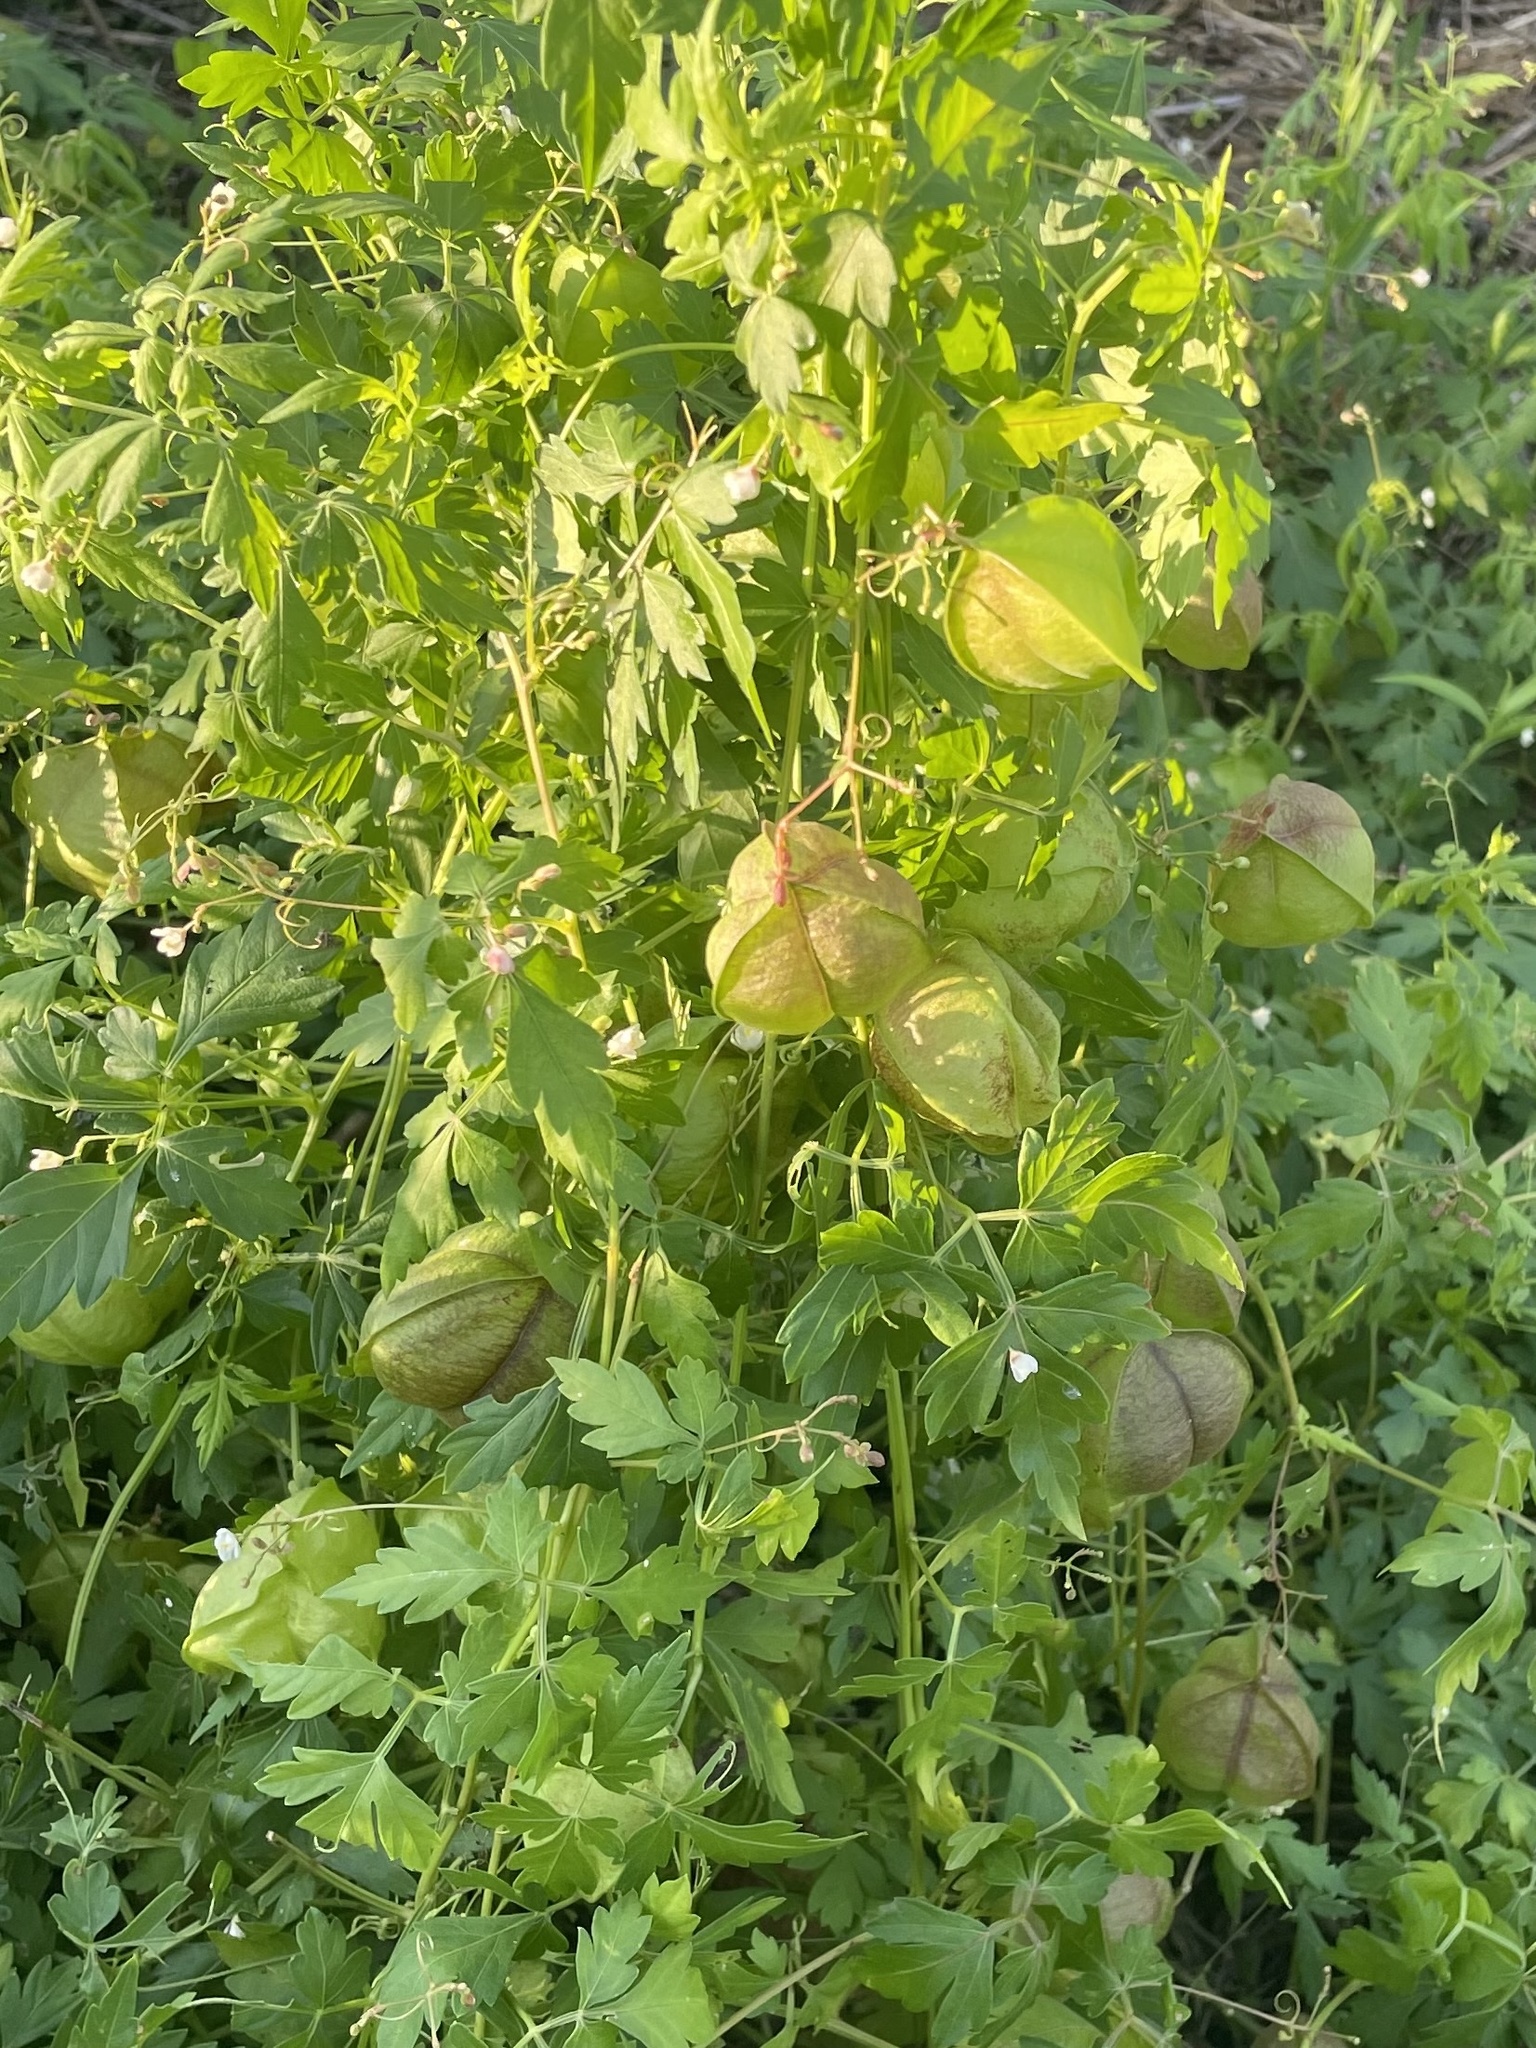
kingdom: Plantae
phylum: Tracheophyta
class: Magnoliopsida
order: Sapindales
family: Sapindaceae
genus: Cardiospermum
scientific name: Cardiospermum halicacabum
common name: Balloon vine
